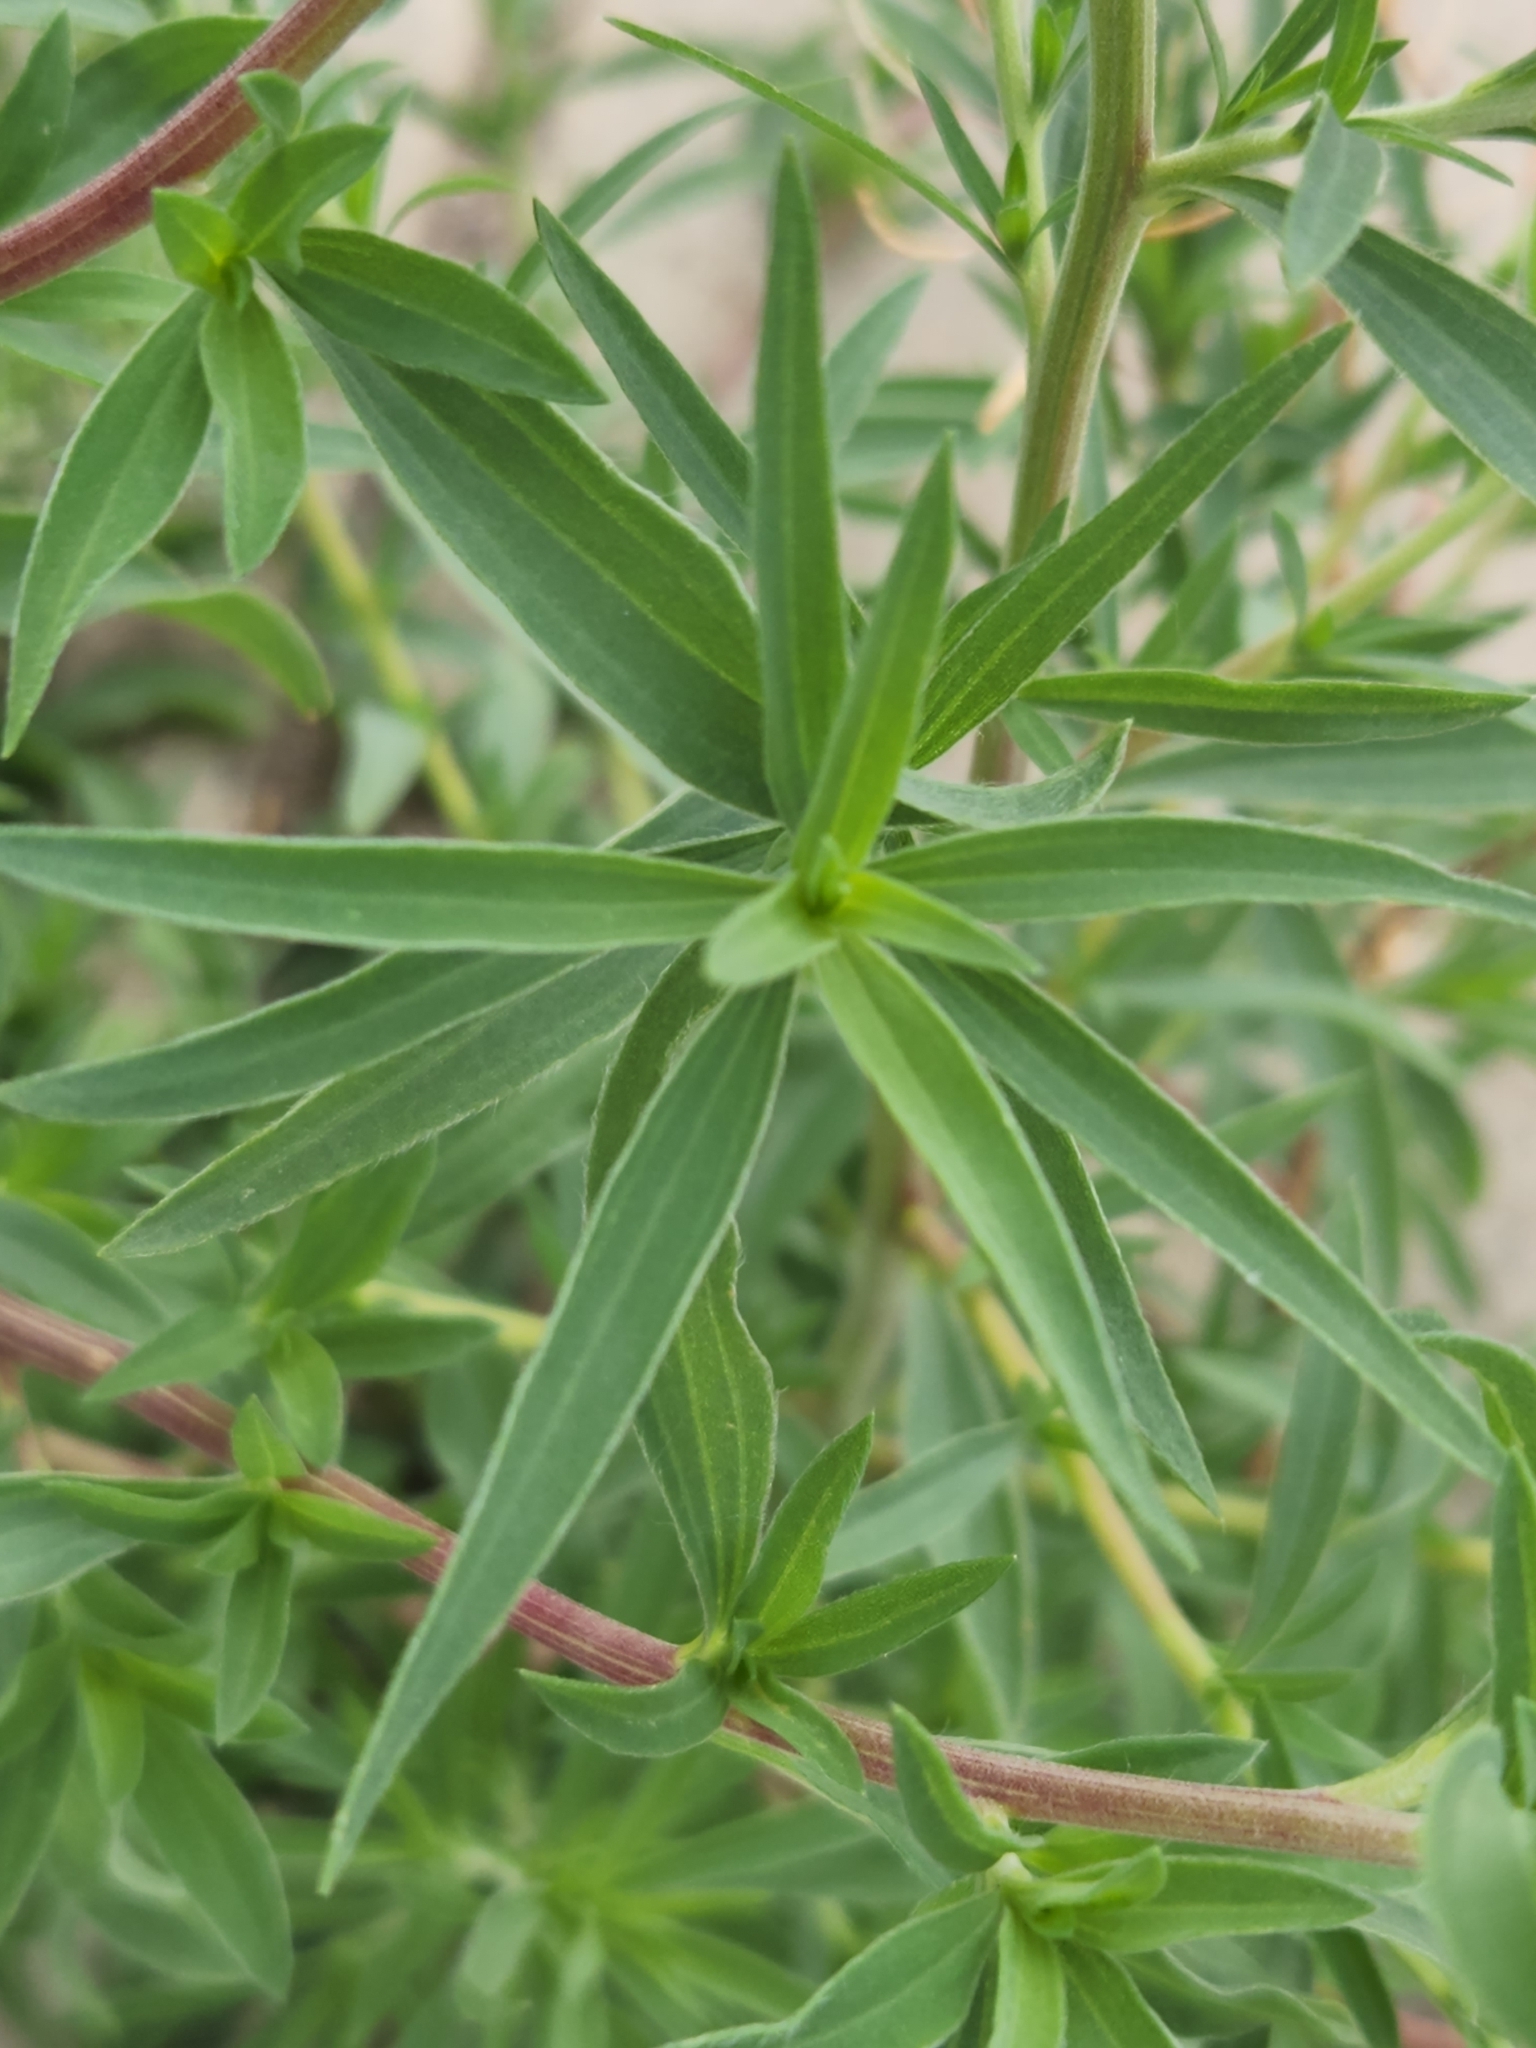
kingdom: Plantae
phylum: Tracheophyta
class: Magnoliopsida
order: Caryophyllales
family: Amaranthaceae
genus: Bassia
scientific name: Bassia scoparia
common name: Belvedere
